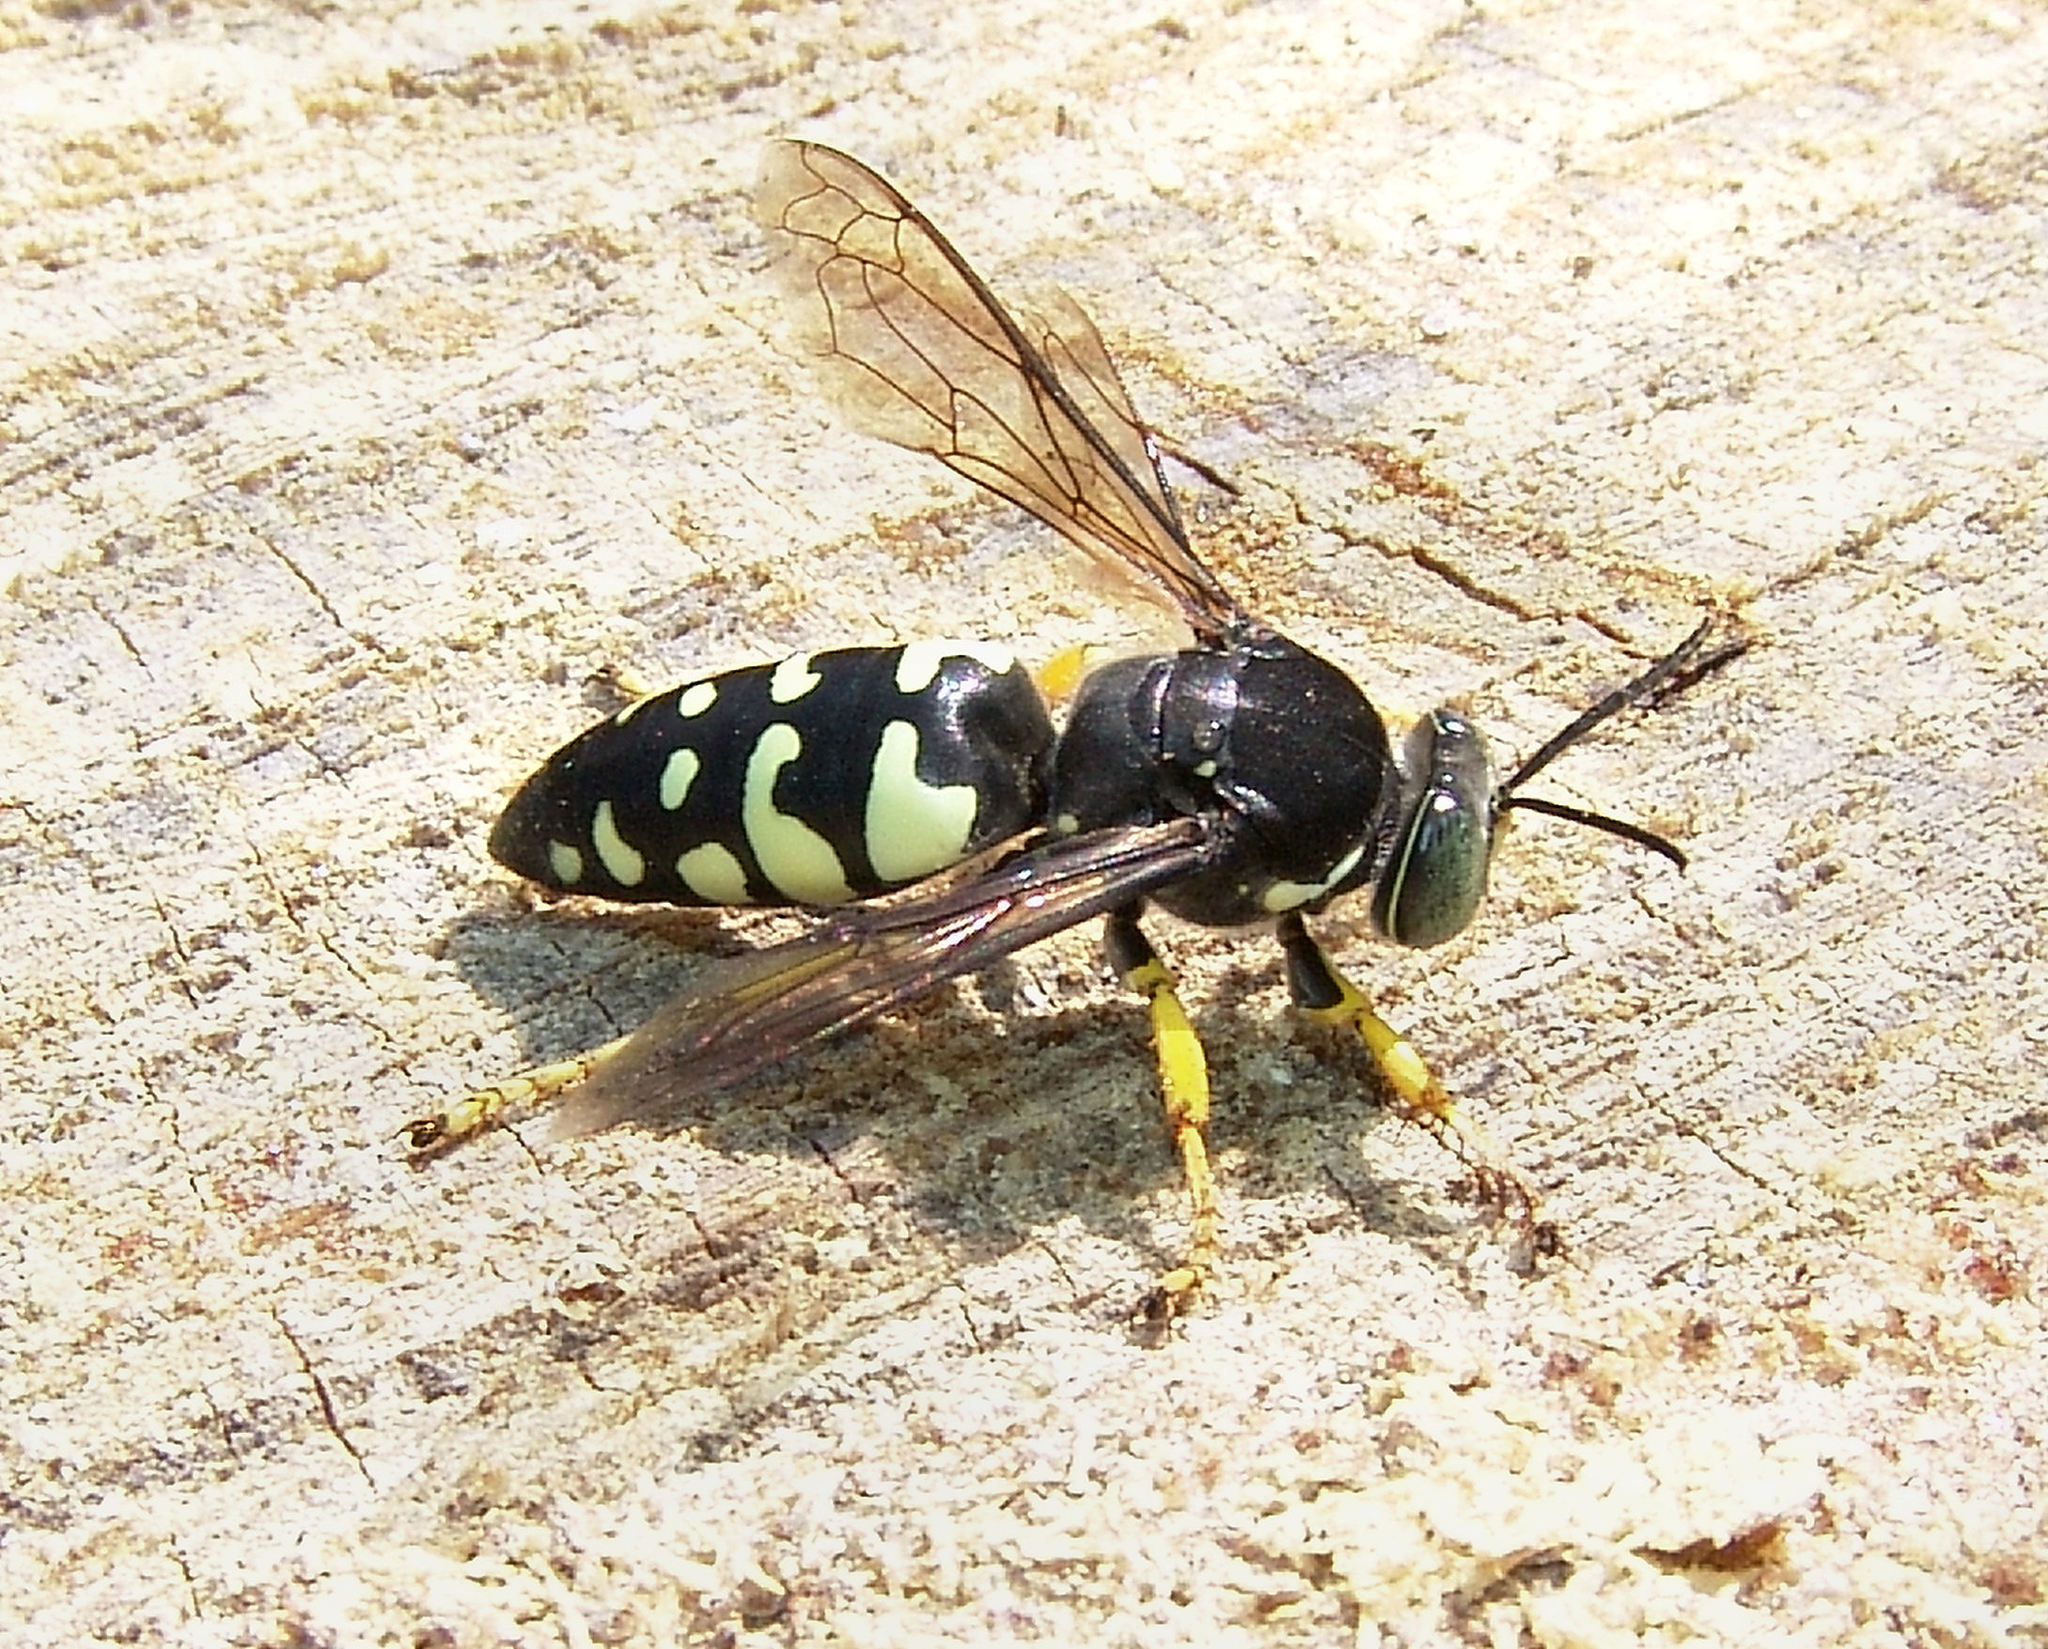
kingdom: Animalia
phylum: Arthropoda
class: Insecta
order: Hymenoptera
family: Crabronidae
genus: Stictia
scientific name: Stictia carolina
